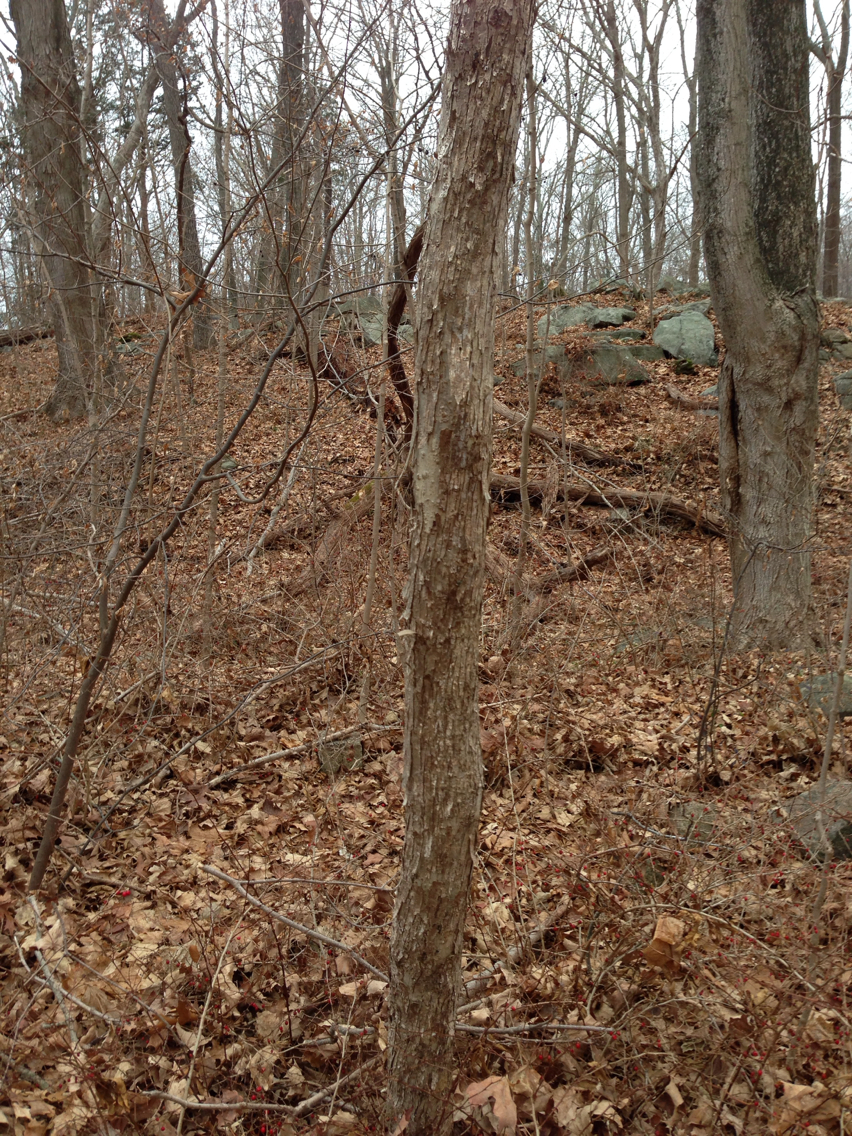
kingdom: Plantae
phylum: Tracheophyta
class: Magnoliopsida
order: Fagales
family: Betulaceae
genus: Ostrya
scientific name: Ostrya virginiana
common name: Ironwood
